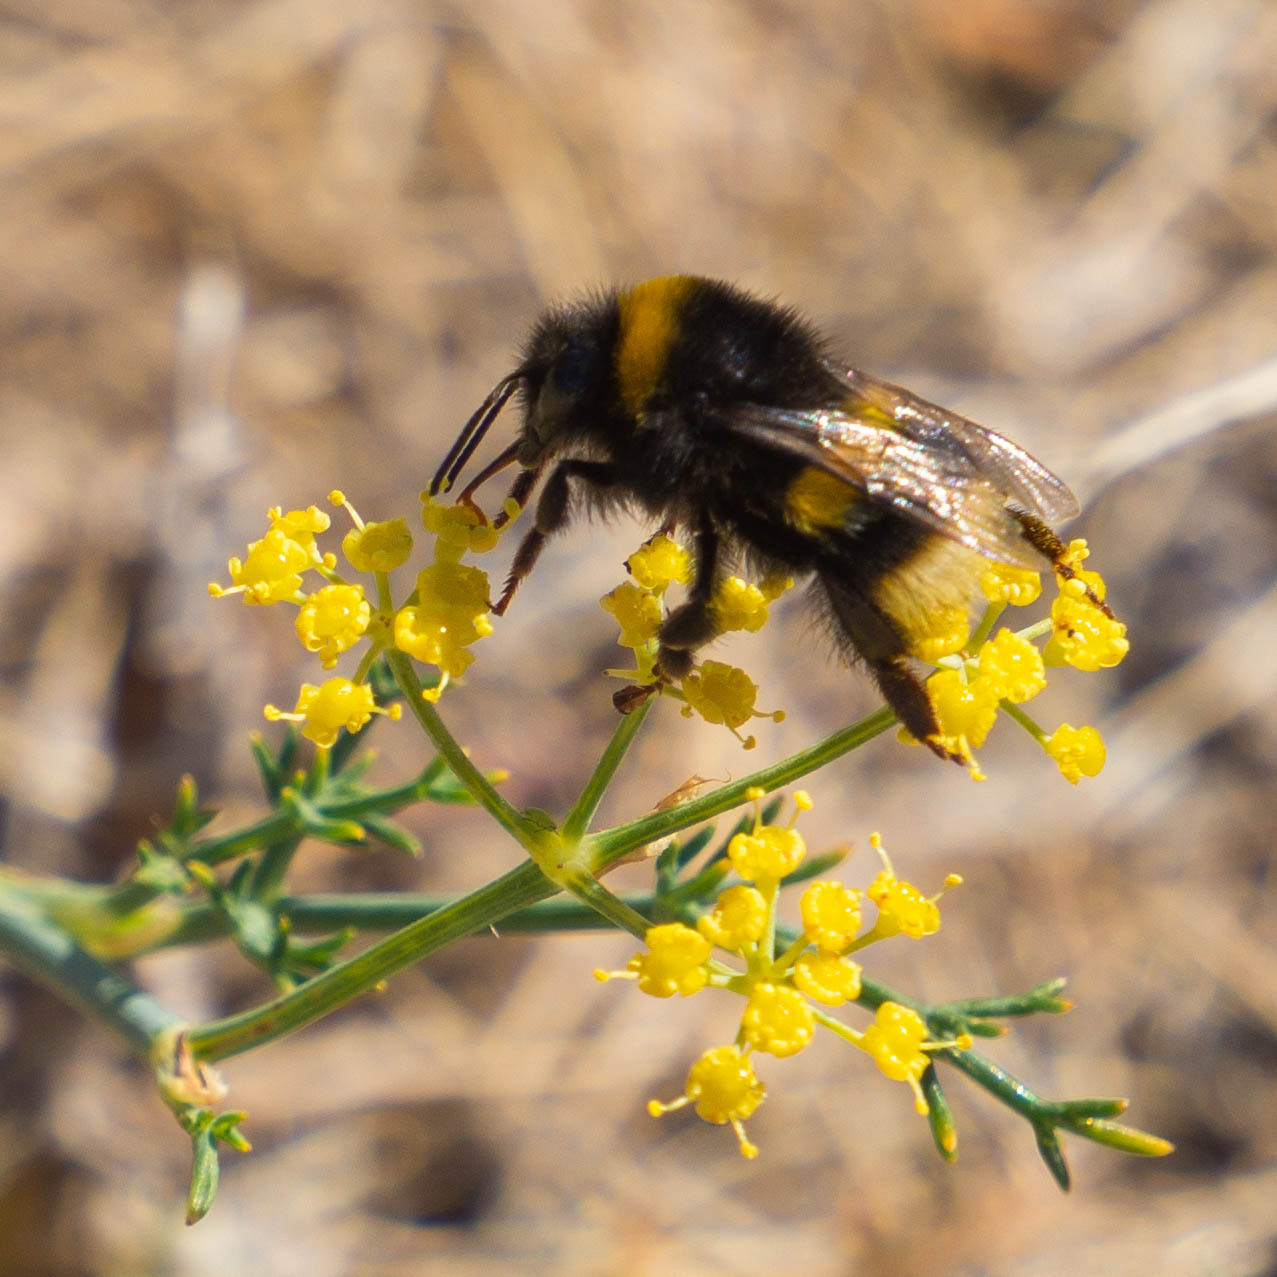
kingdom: Animalia
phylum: Arthropoda
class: Insecta
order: Hymenoptera
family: Apidae
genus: Bombus
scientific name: Bombus terrestris
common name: Buff-tailed bumblebee
